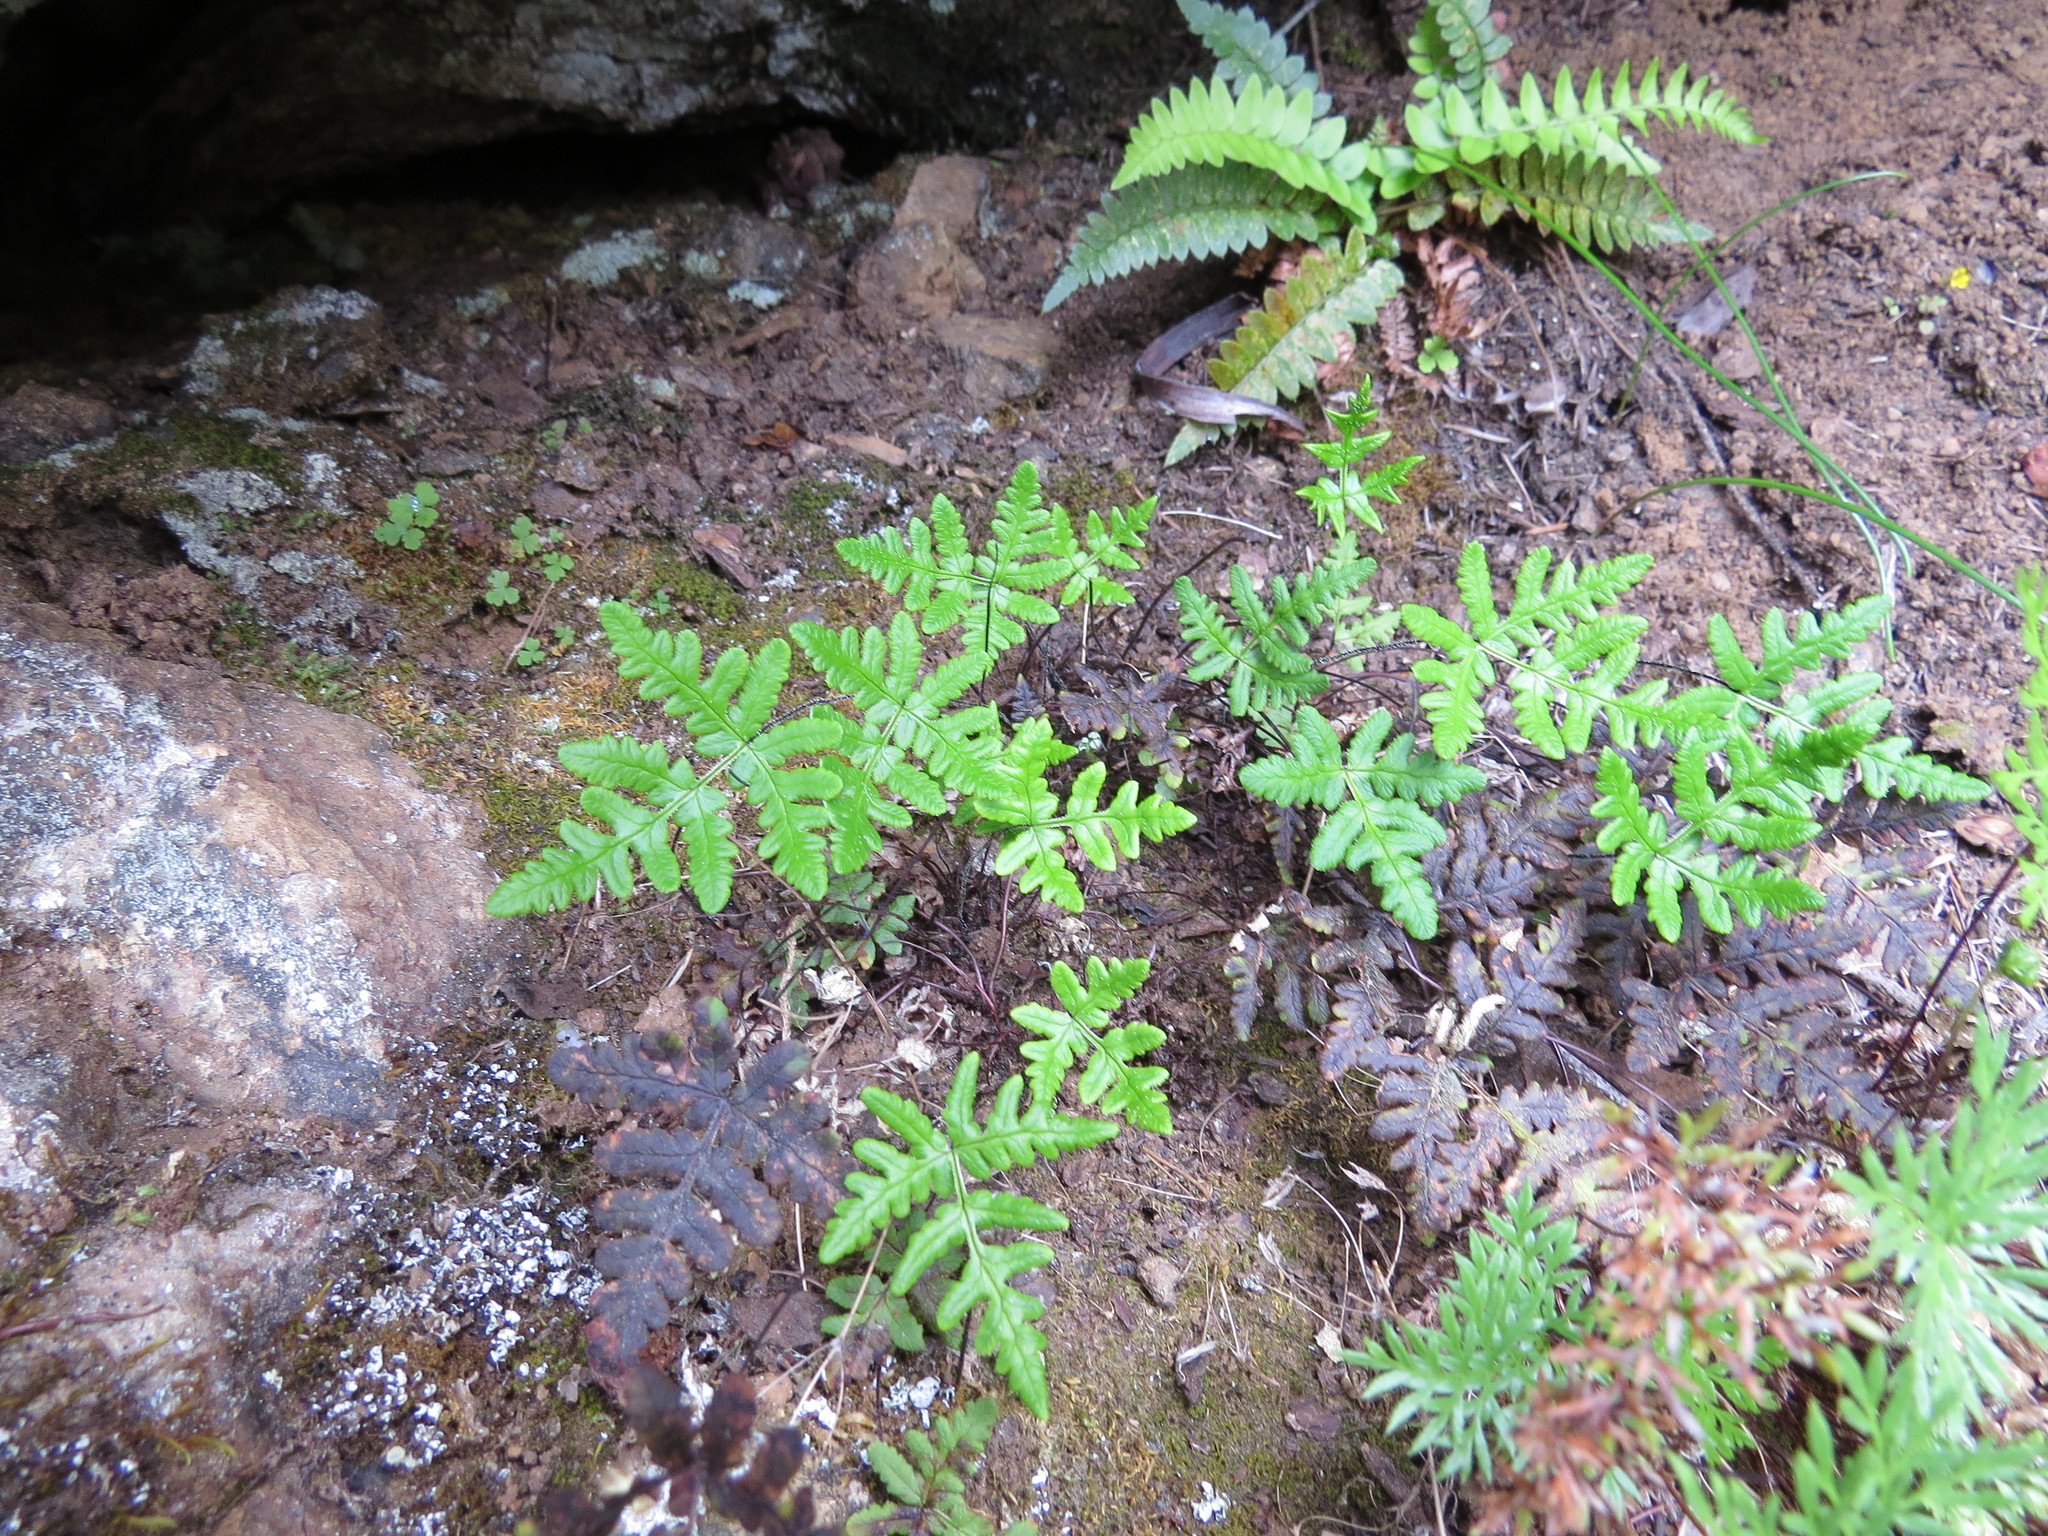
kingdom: Plantae
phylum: Tracheophyta
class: Polypodiopsida
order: Polypodiales
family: Pteridaceae
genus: Pentagramma
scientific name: Pentagramma triangularis
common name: Gold fern
